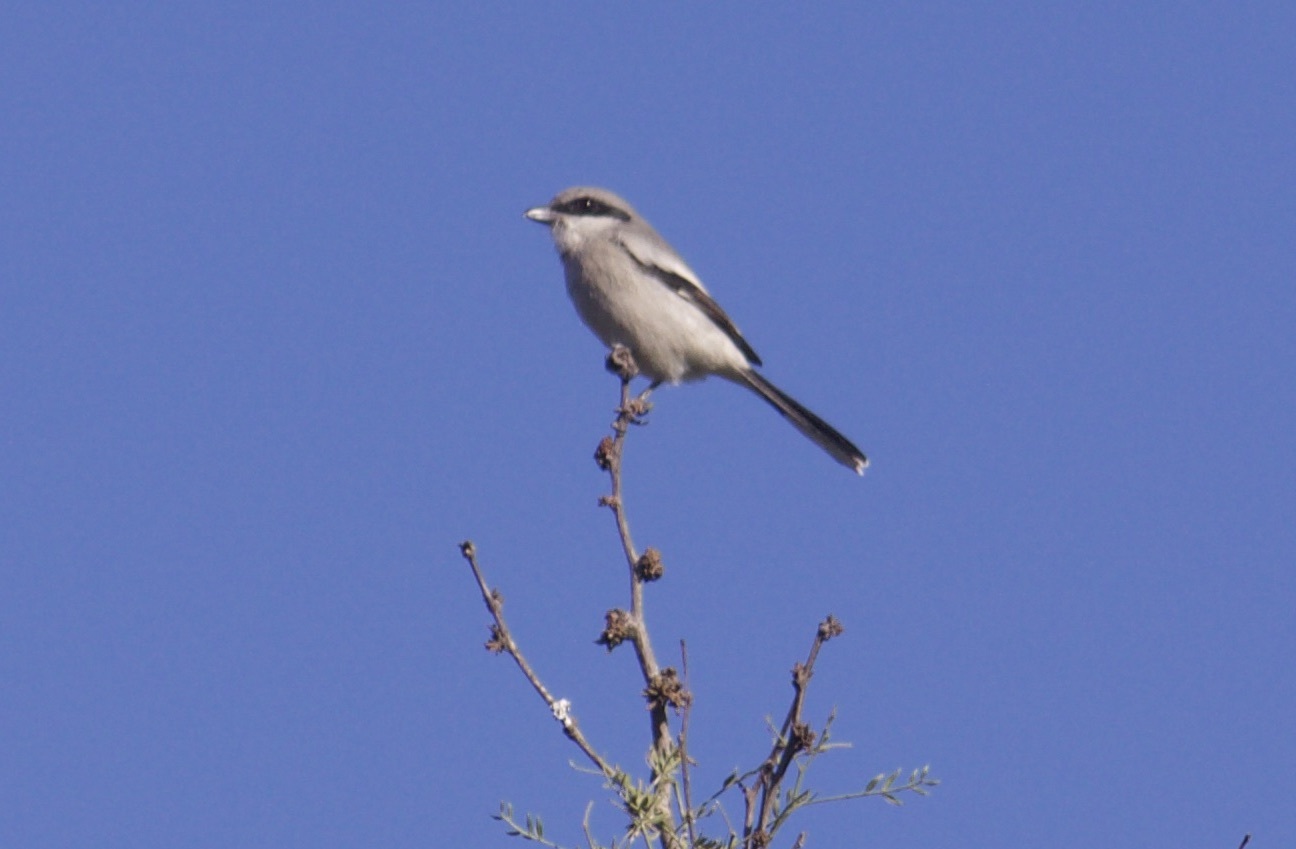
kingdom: Animalia
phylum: Chordata
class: Aves
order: Passeriformes
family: Laniidae
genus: Lanius
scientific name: Lanius ludovicianus
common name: Loggerhead shrike
